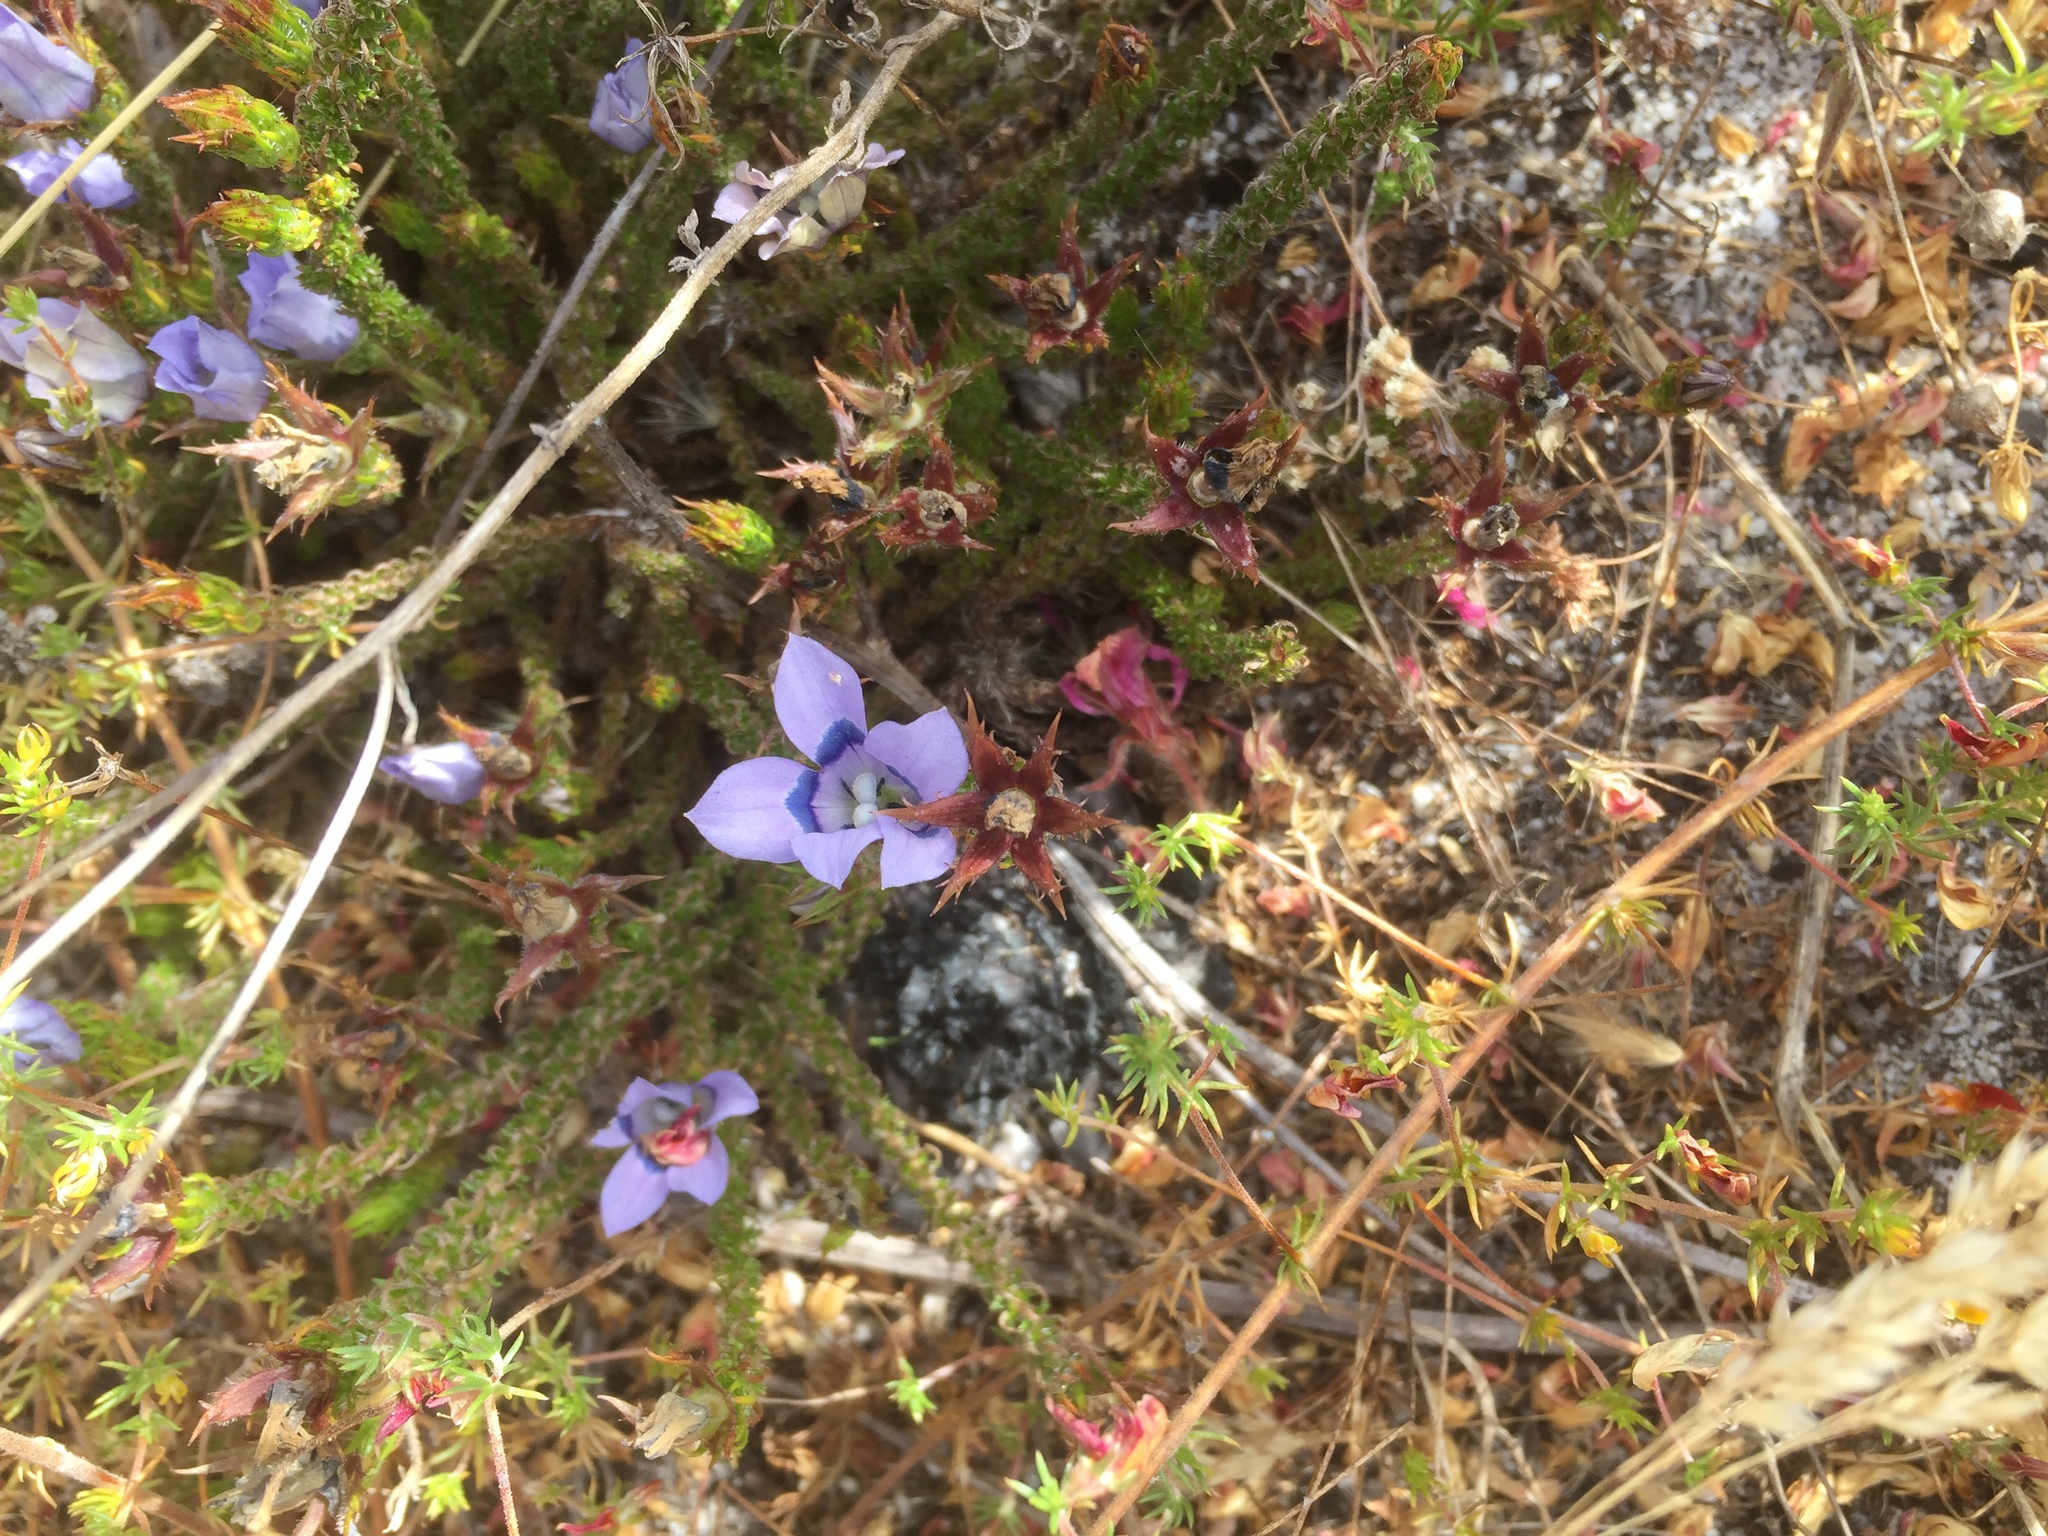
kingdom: Plantae
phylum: Tracheophyta
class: Magnoliopsida
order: Asterales
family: Campanulaceae
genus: Roella
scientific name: Roella ciliata
